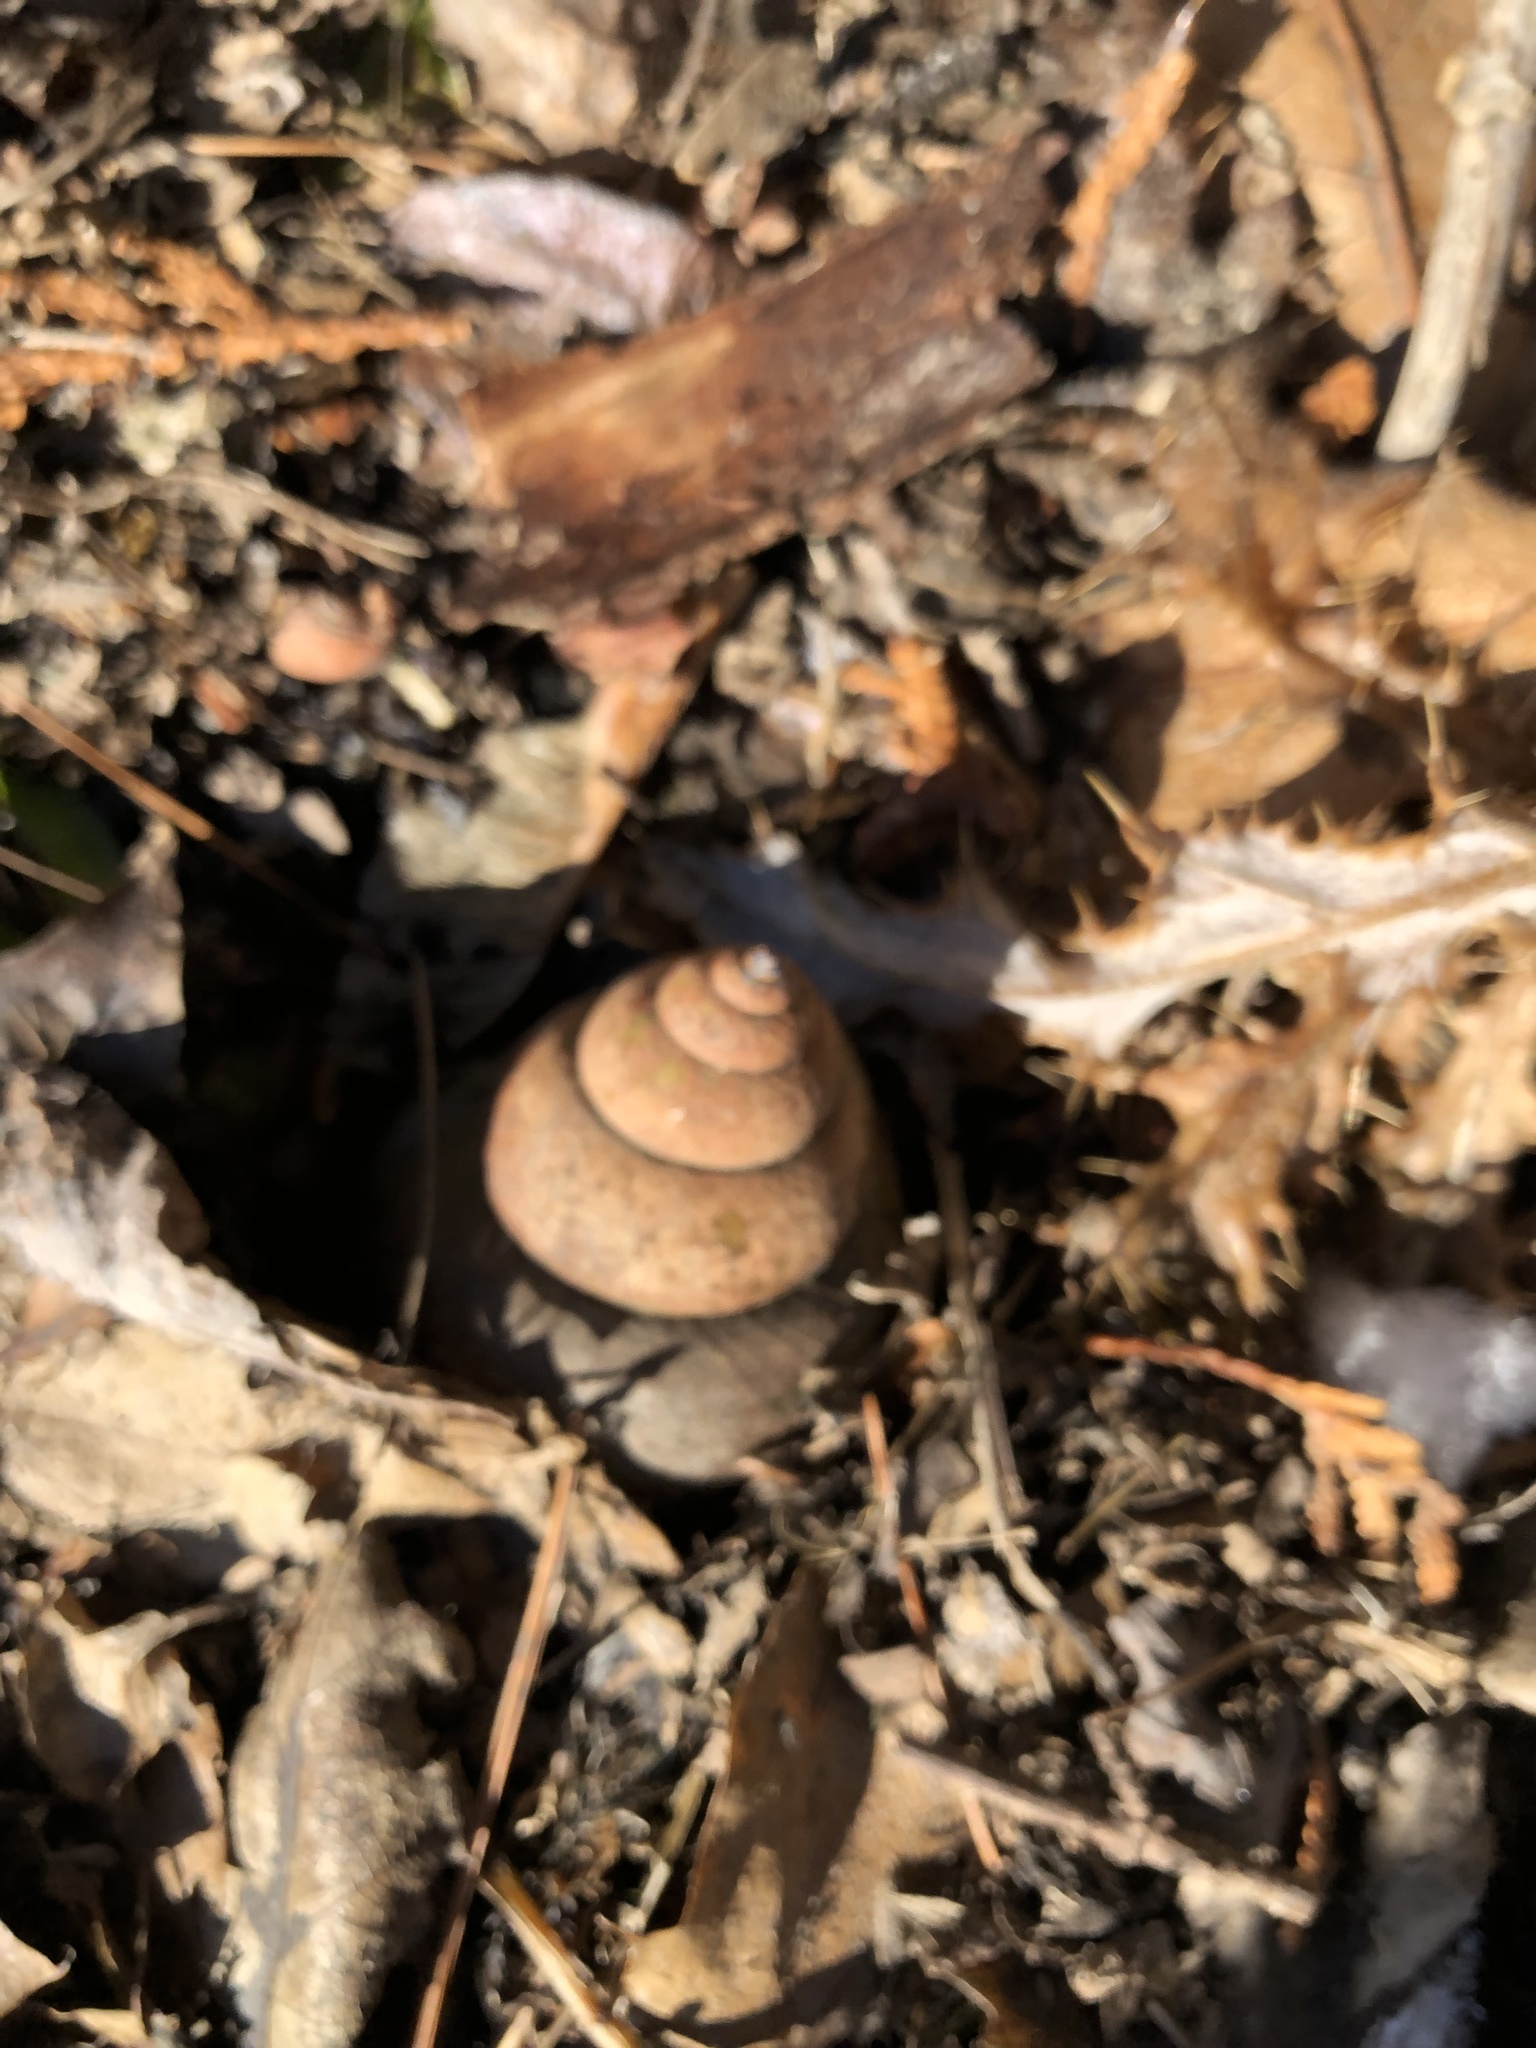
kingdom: Animalia
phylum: Mollusca
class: Gastropoda
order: Architaenioglossa
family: Viviparidae
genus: Cipangopaludina
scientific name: Cipangopaludina chinensis
